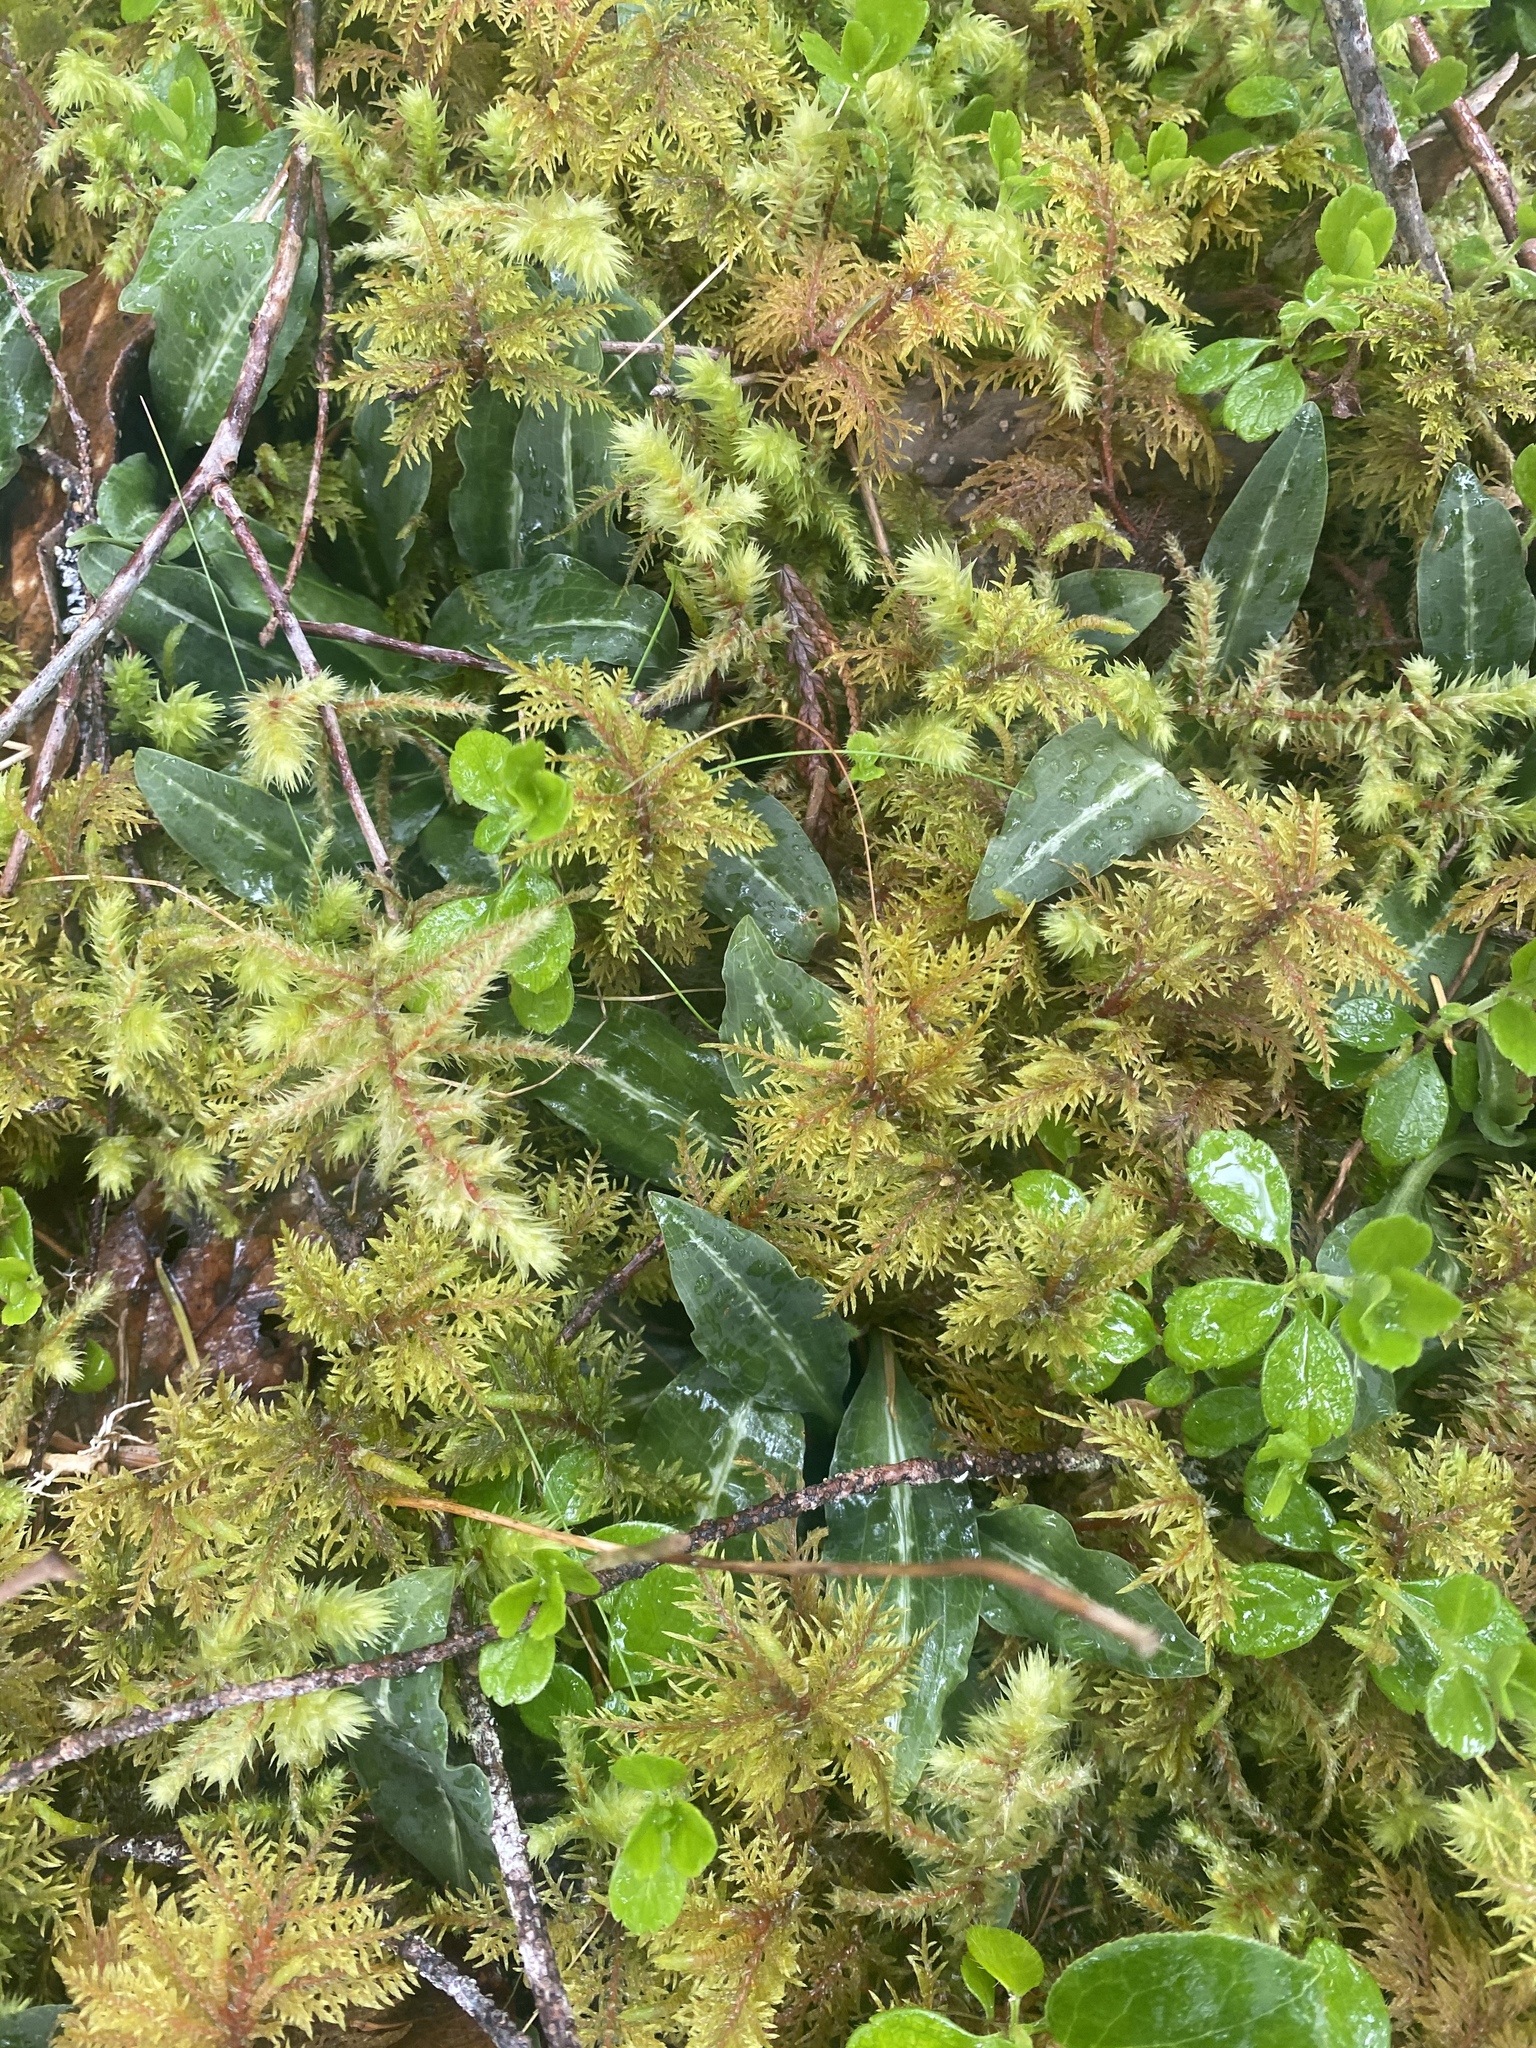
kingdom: Plantae
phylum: Tracheophyta
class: Liliopsida
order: Asparagales
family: Orchidaceae
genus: Goodyera
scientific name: Goodyera oblongifolia
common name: Giant rattlesnake-plantain
